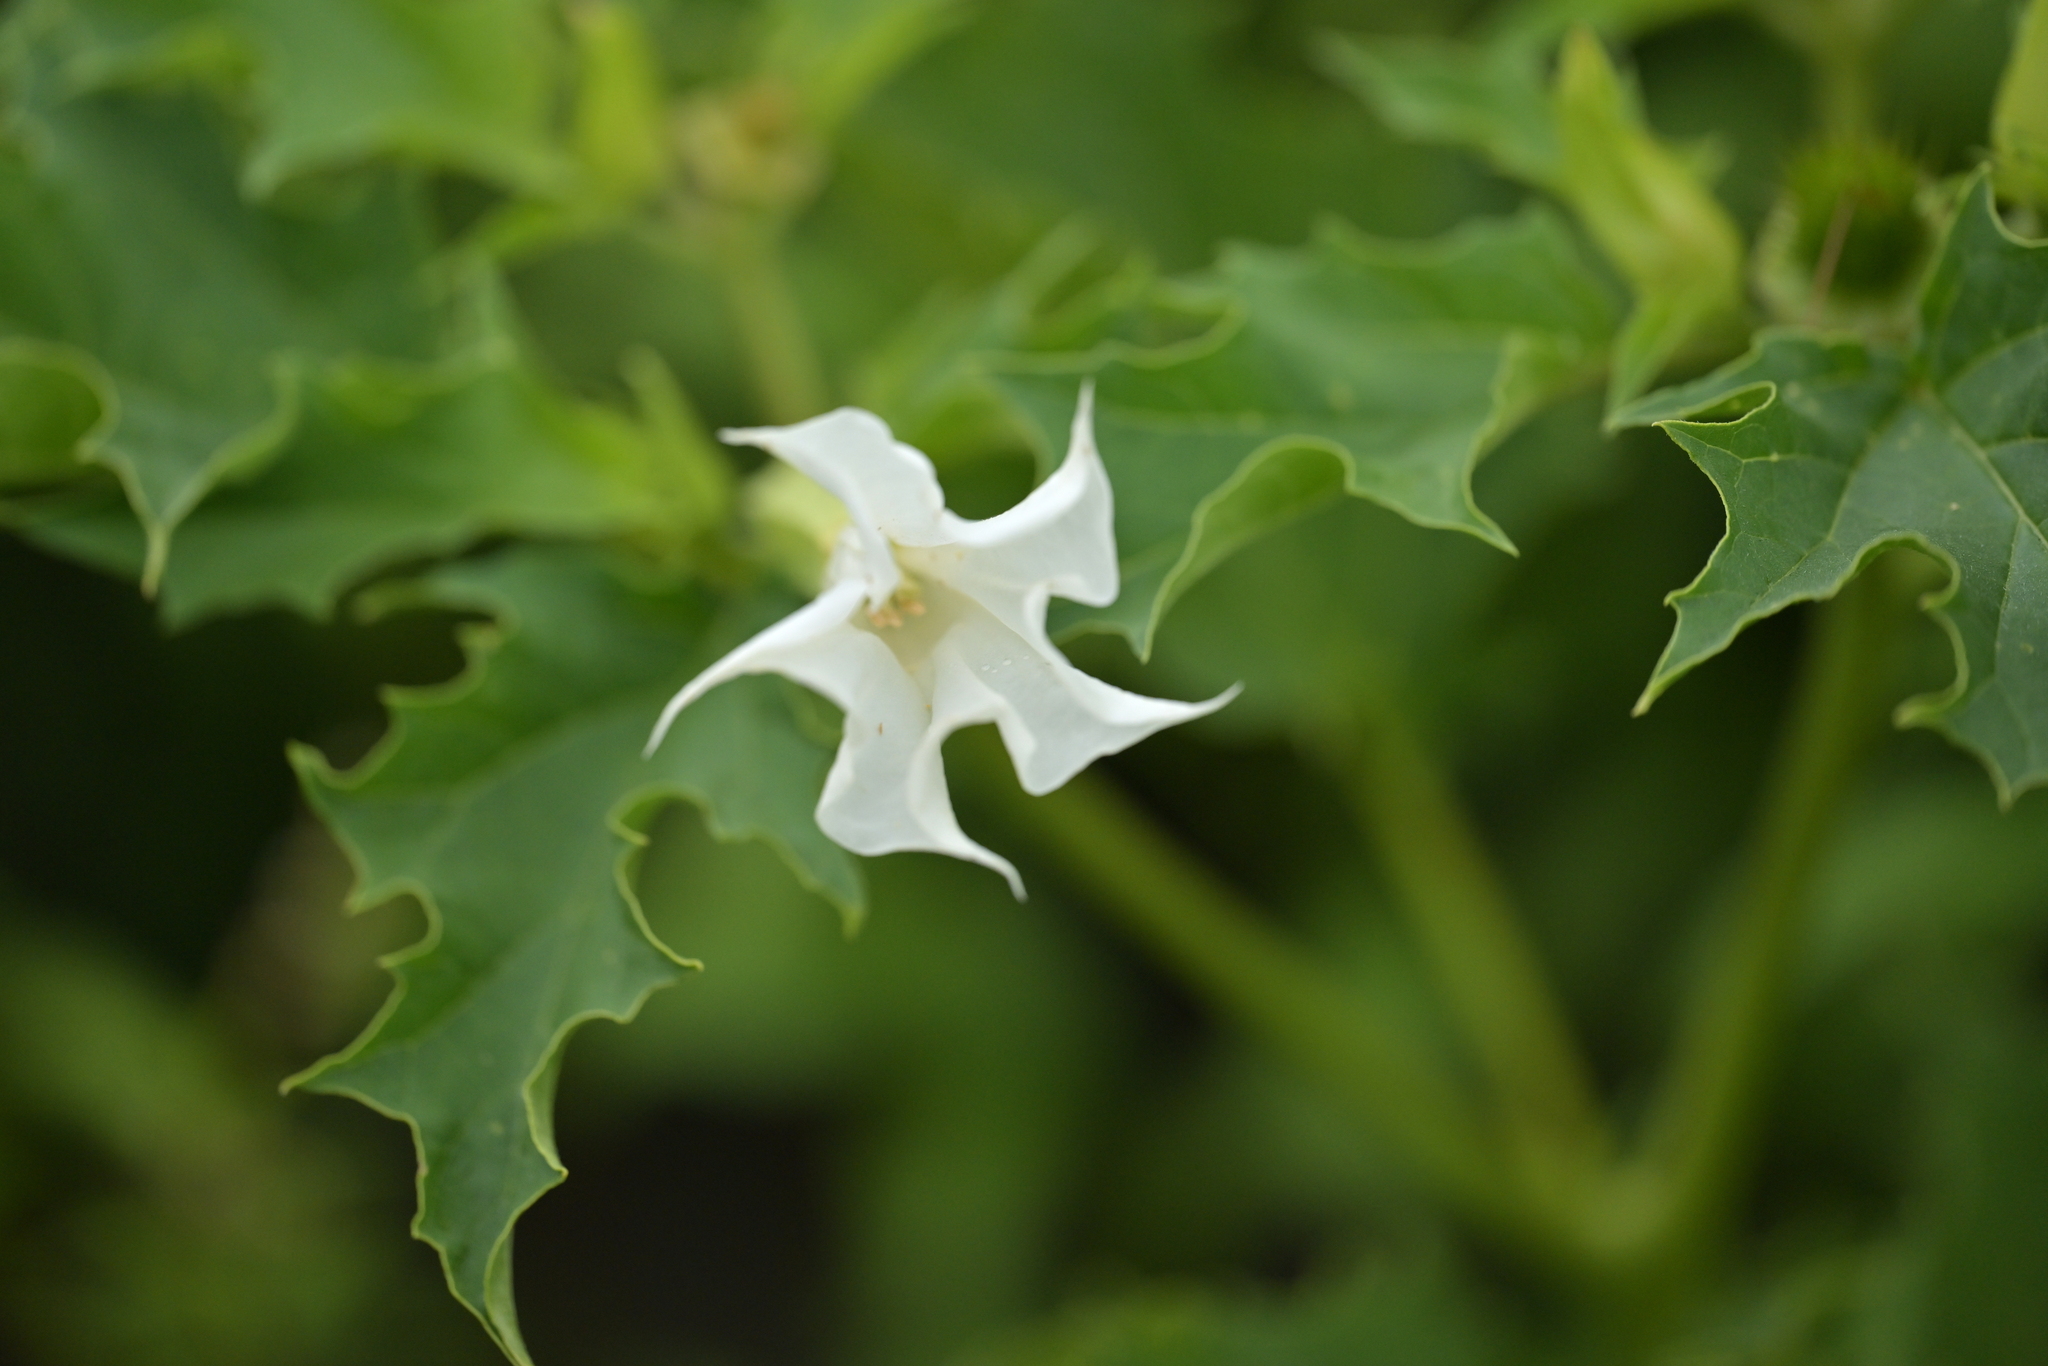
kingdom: Plantae
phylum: Tracheophyta
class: Magnoliopsida
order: Solanales
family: Solanaceae
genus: Datura
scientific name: Datura stramonium
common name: Thorn-apple
